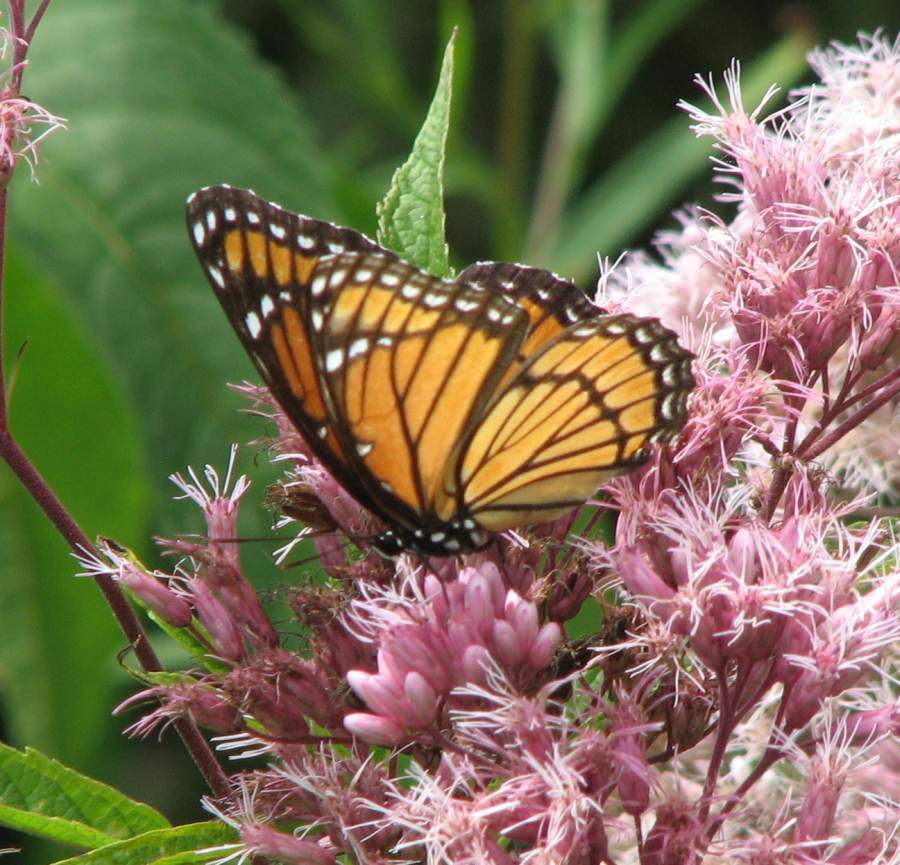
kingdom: Animalia
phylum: Arthropoda
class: Insecta
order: Lepidoptera
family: Nymphalidae
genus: Limenitis
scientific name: Limenitis archippus
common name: Viceroy
